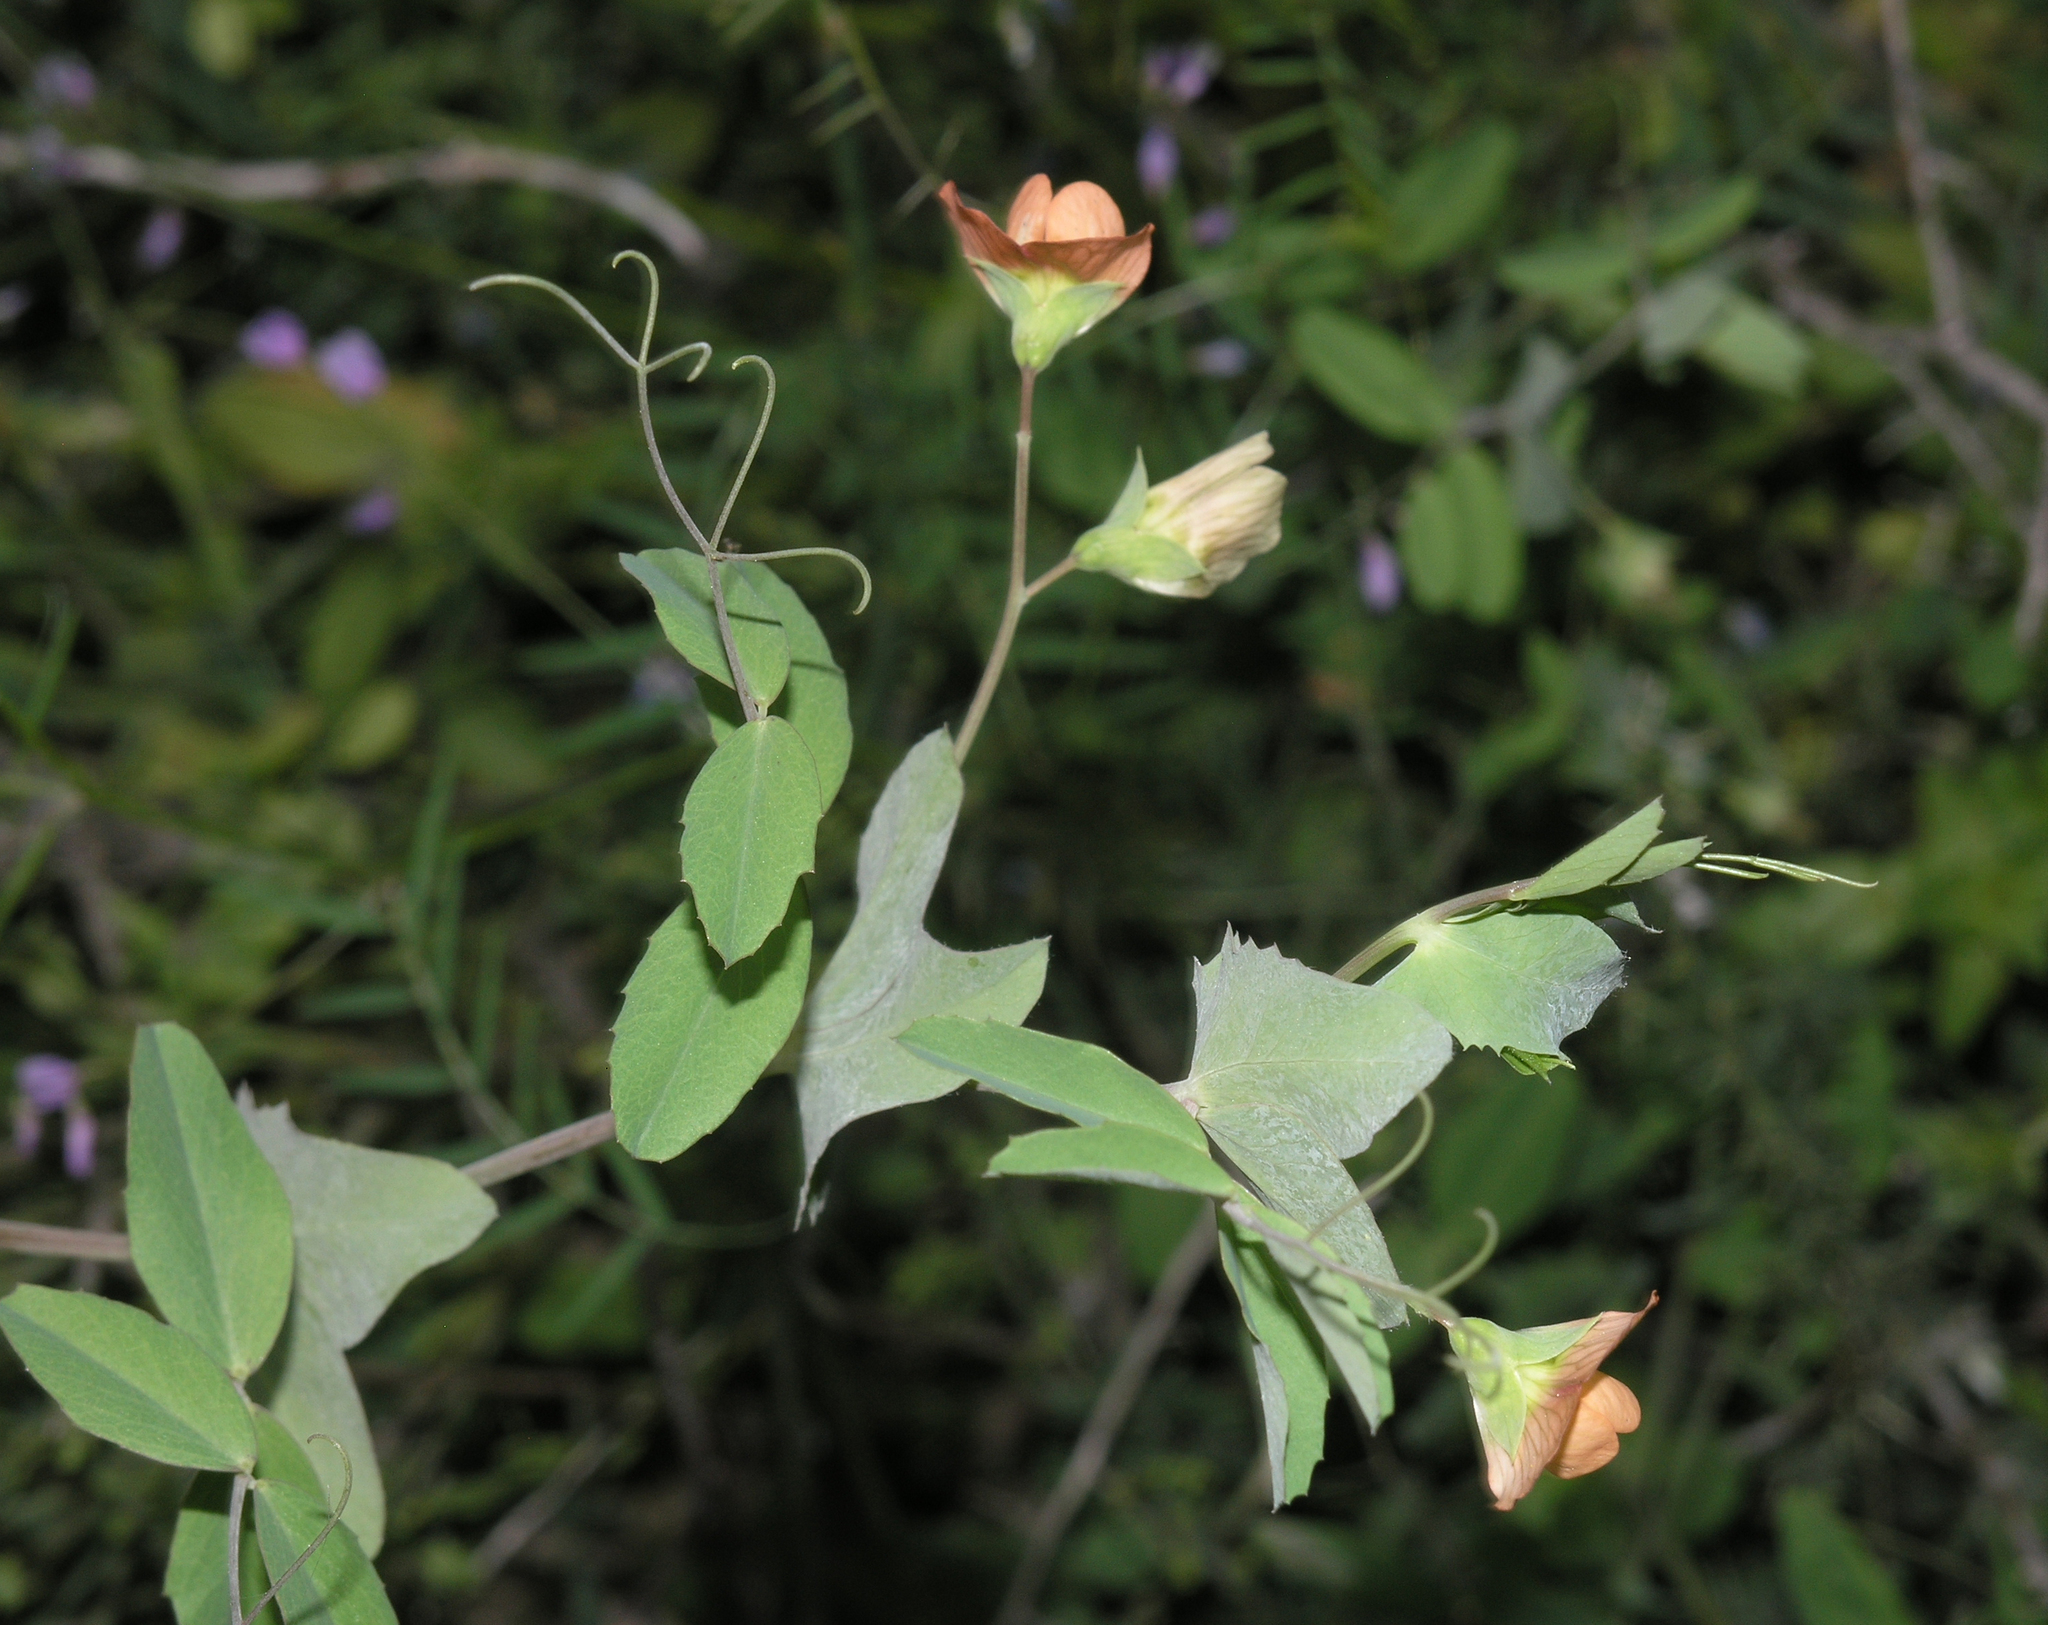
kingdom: Plantae
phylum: Tracheophyta
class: Magnoliopsida
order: Fabales
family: Fabaceae
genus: Lathyrus
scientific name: Lathyrus fulvus
